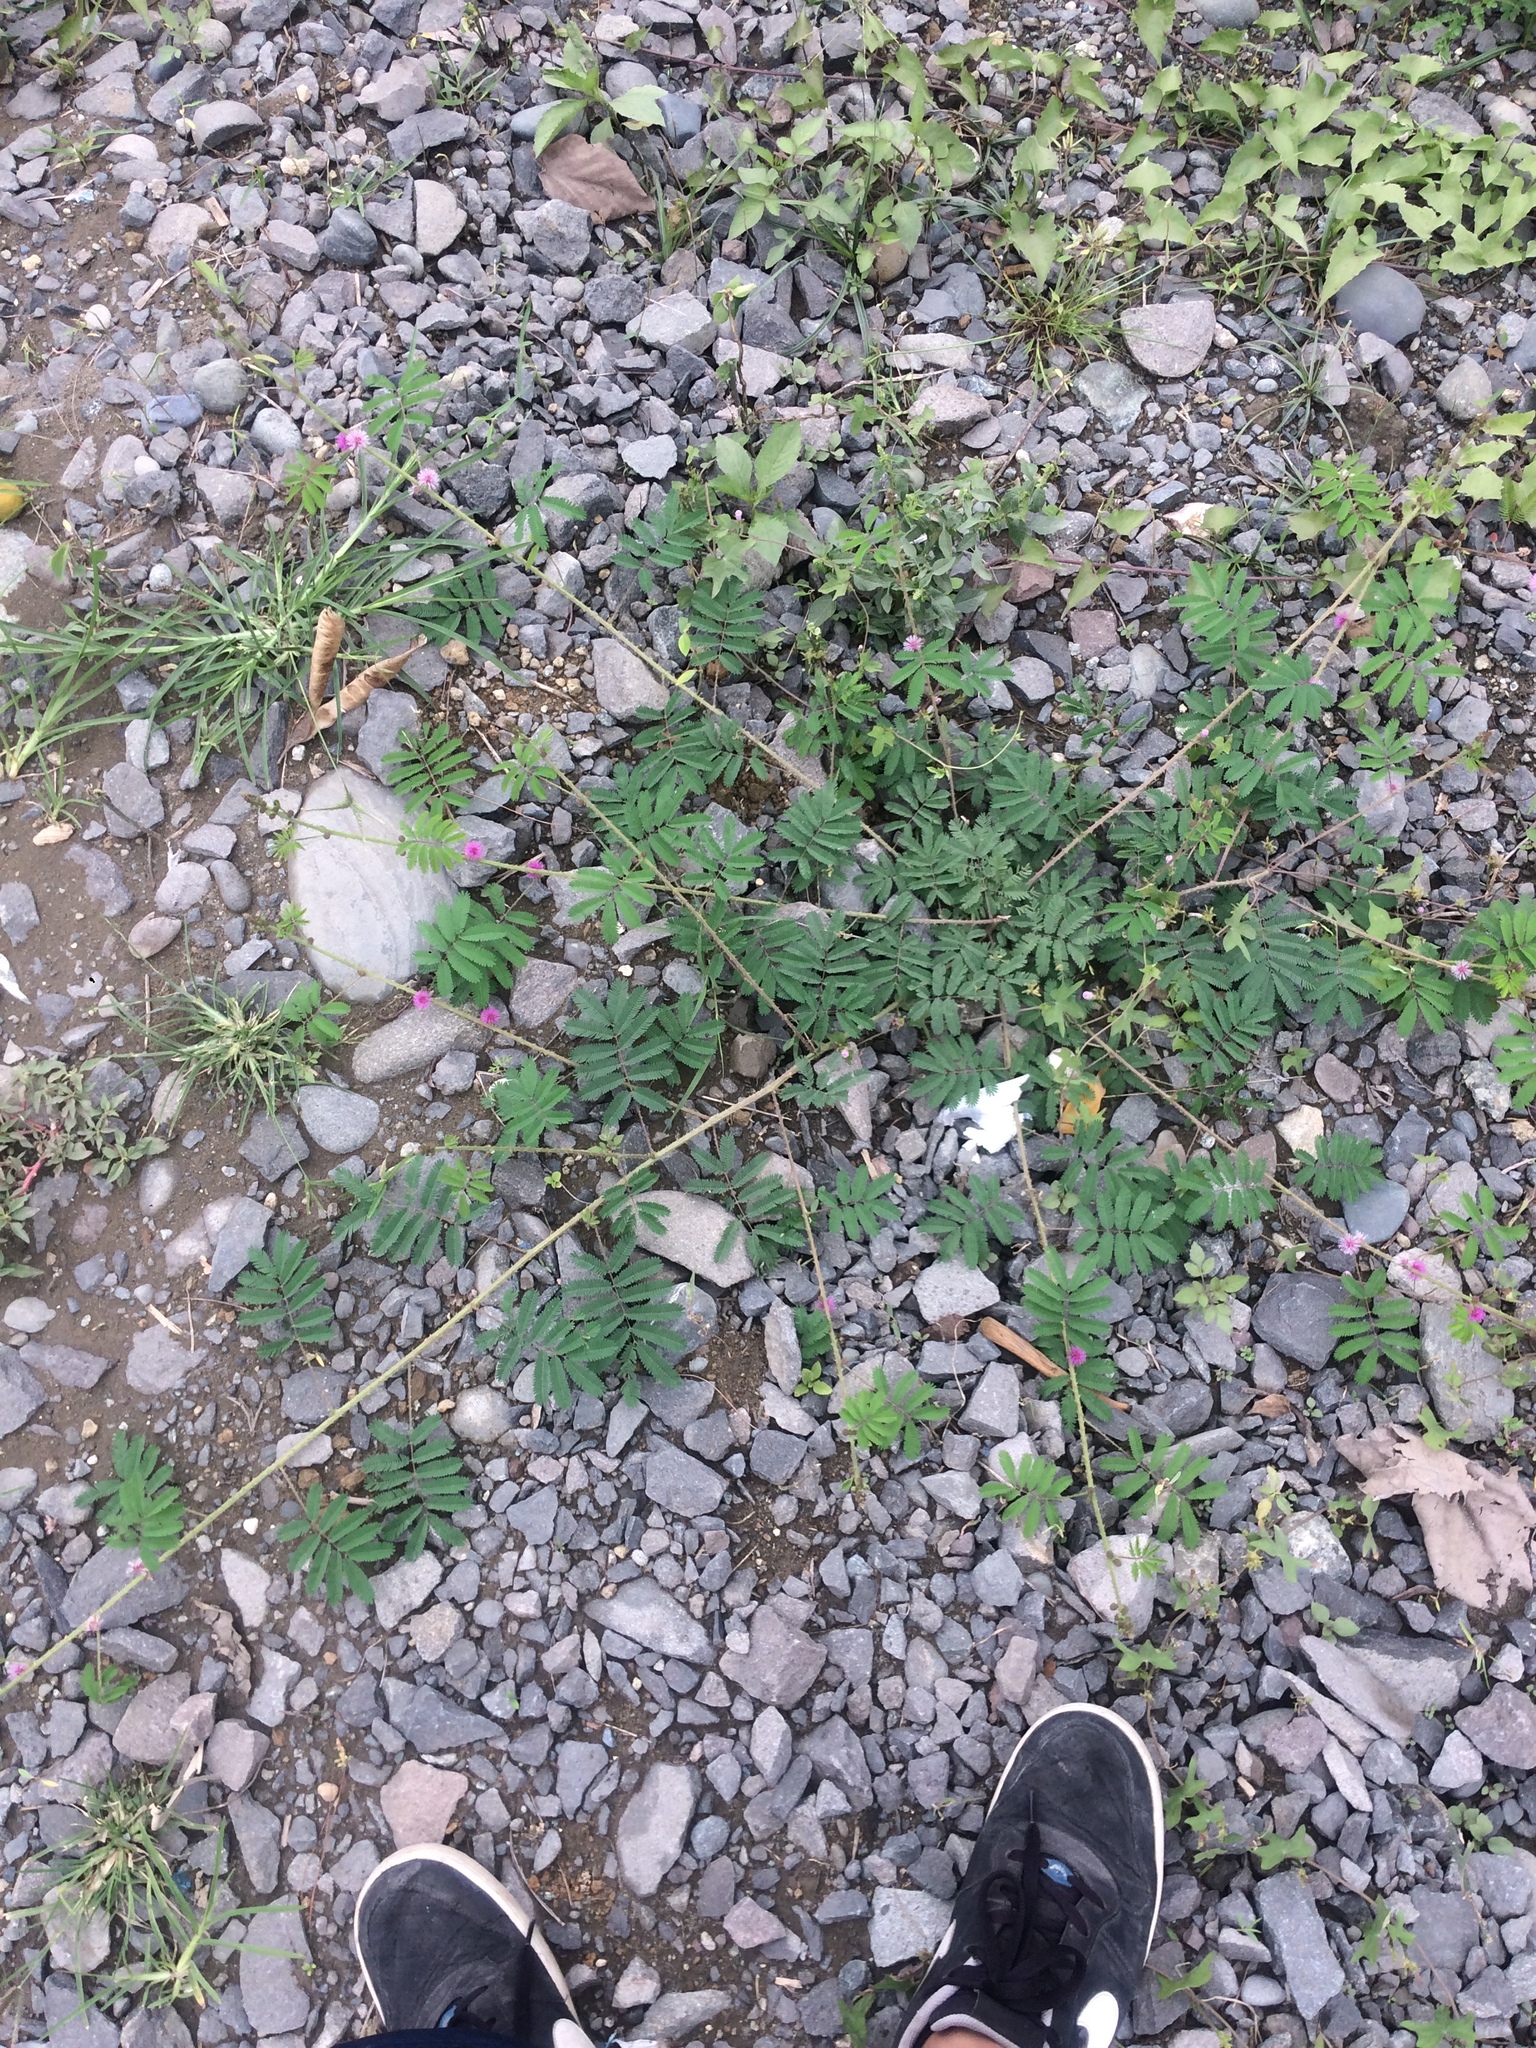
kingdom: Plantae
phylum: Tracheophyta
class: Magnoliopsida
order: Fabales
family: Fabaceae
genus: Mimosa
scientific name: Mimosa diplotricha
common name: Giant sensitive-plant
